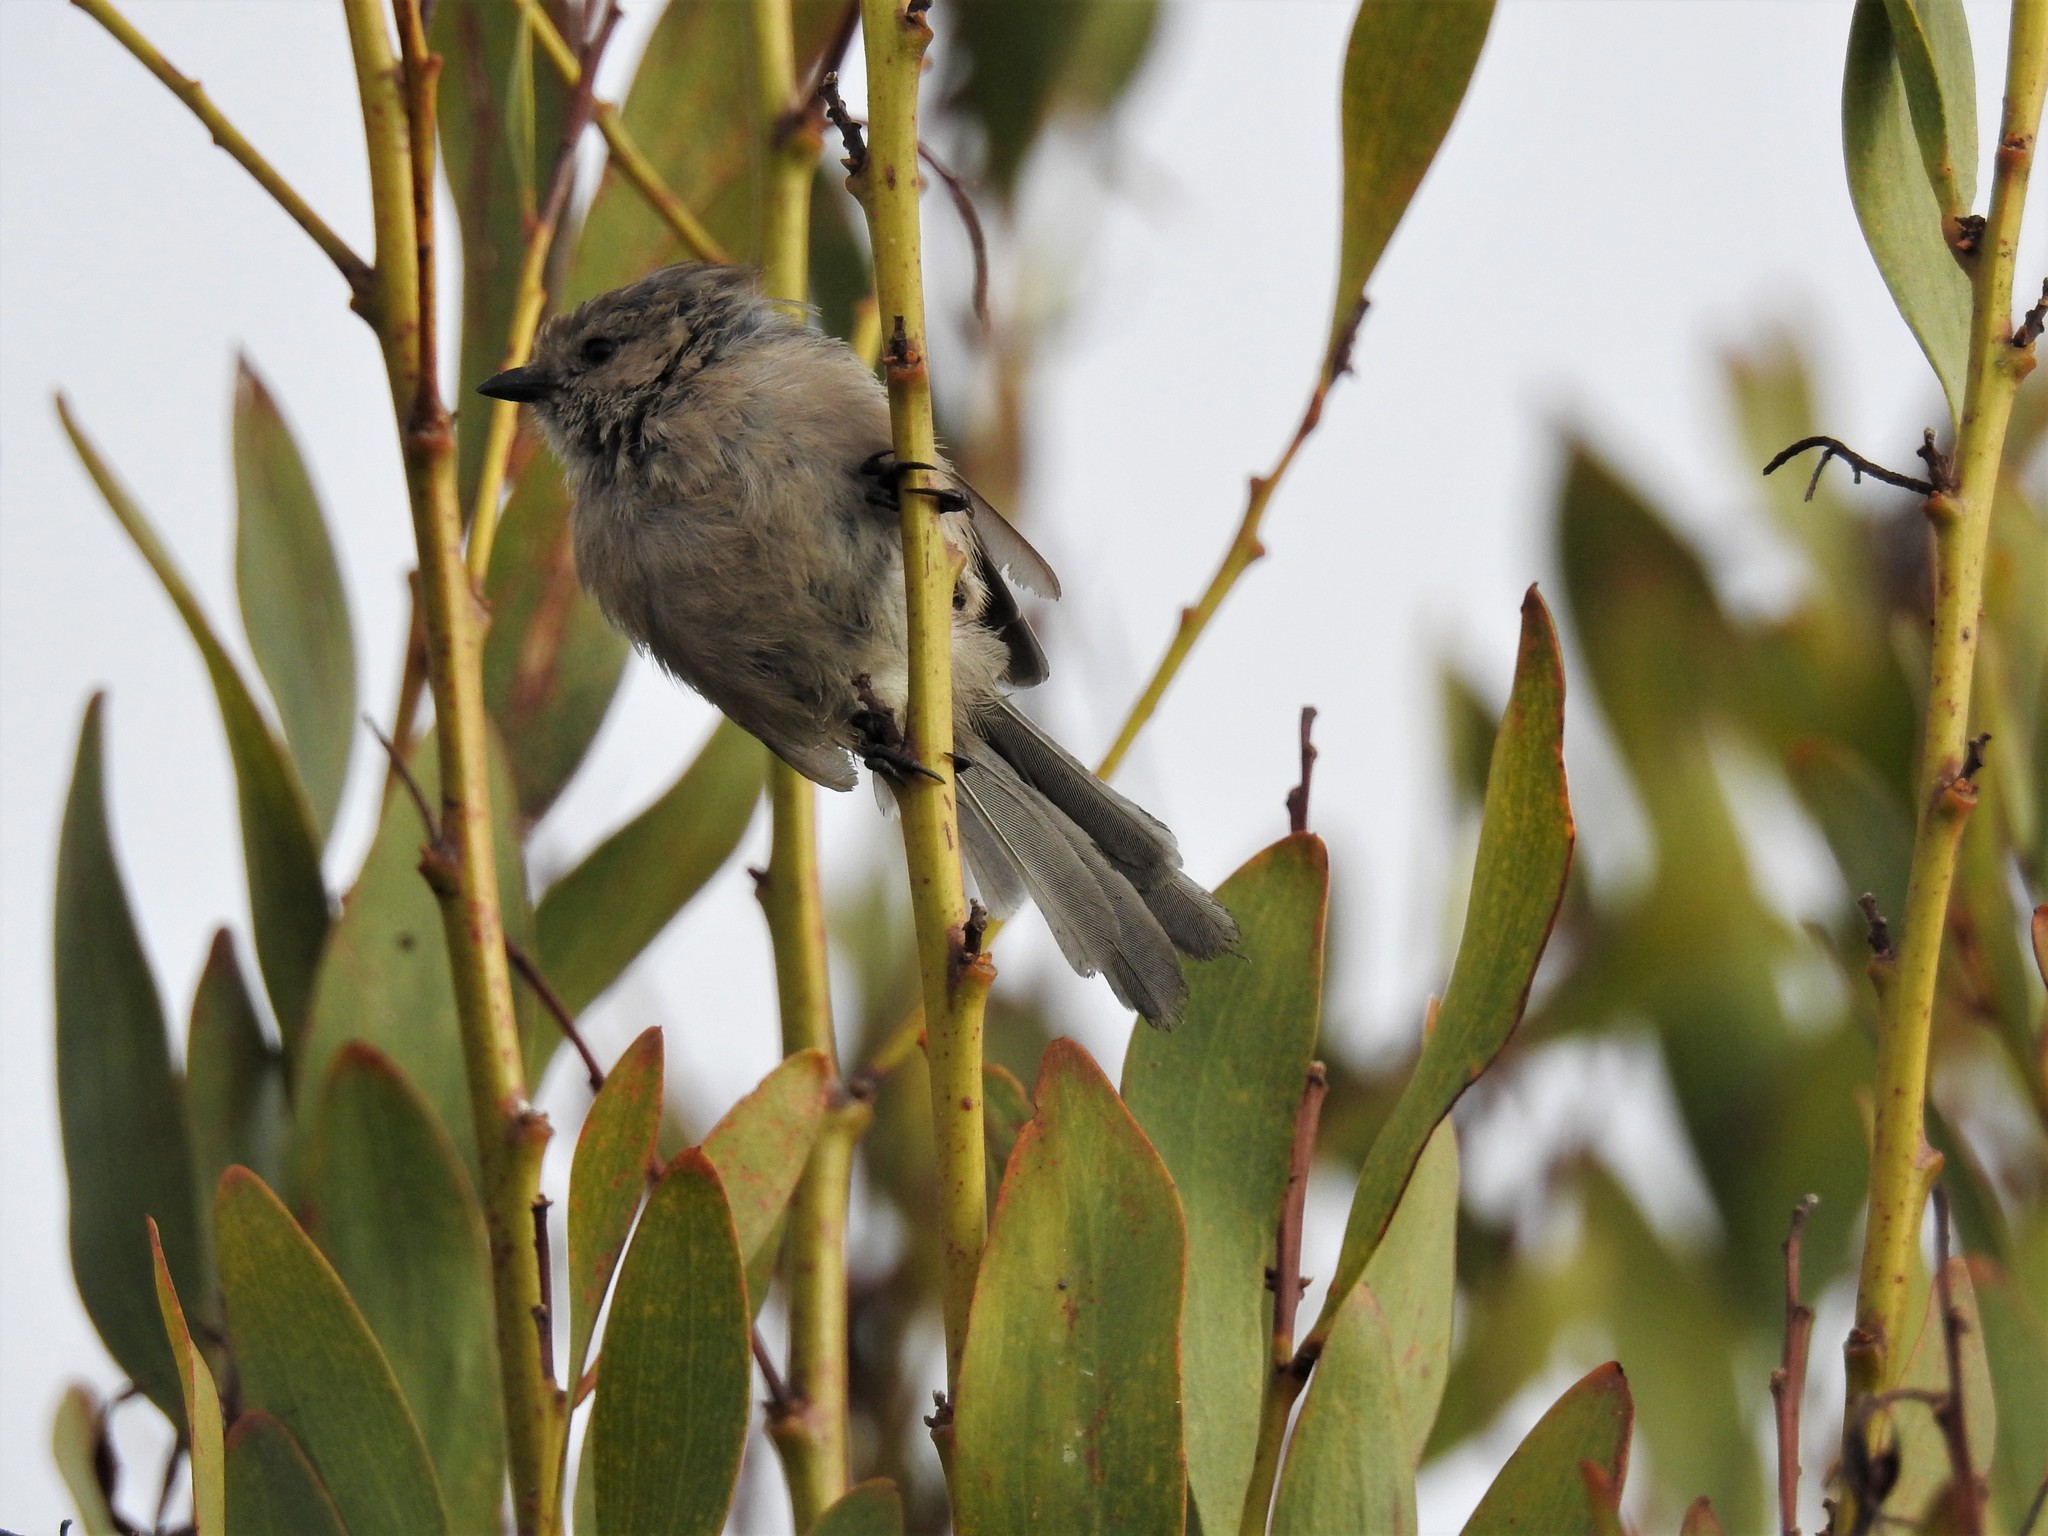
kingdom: Animalia
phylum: Chordata
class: Aves
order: Passeriformes
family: Aegithalidae
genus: Psaltriparus
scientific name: Psaltriparus minimus
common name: American bushtit
